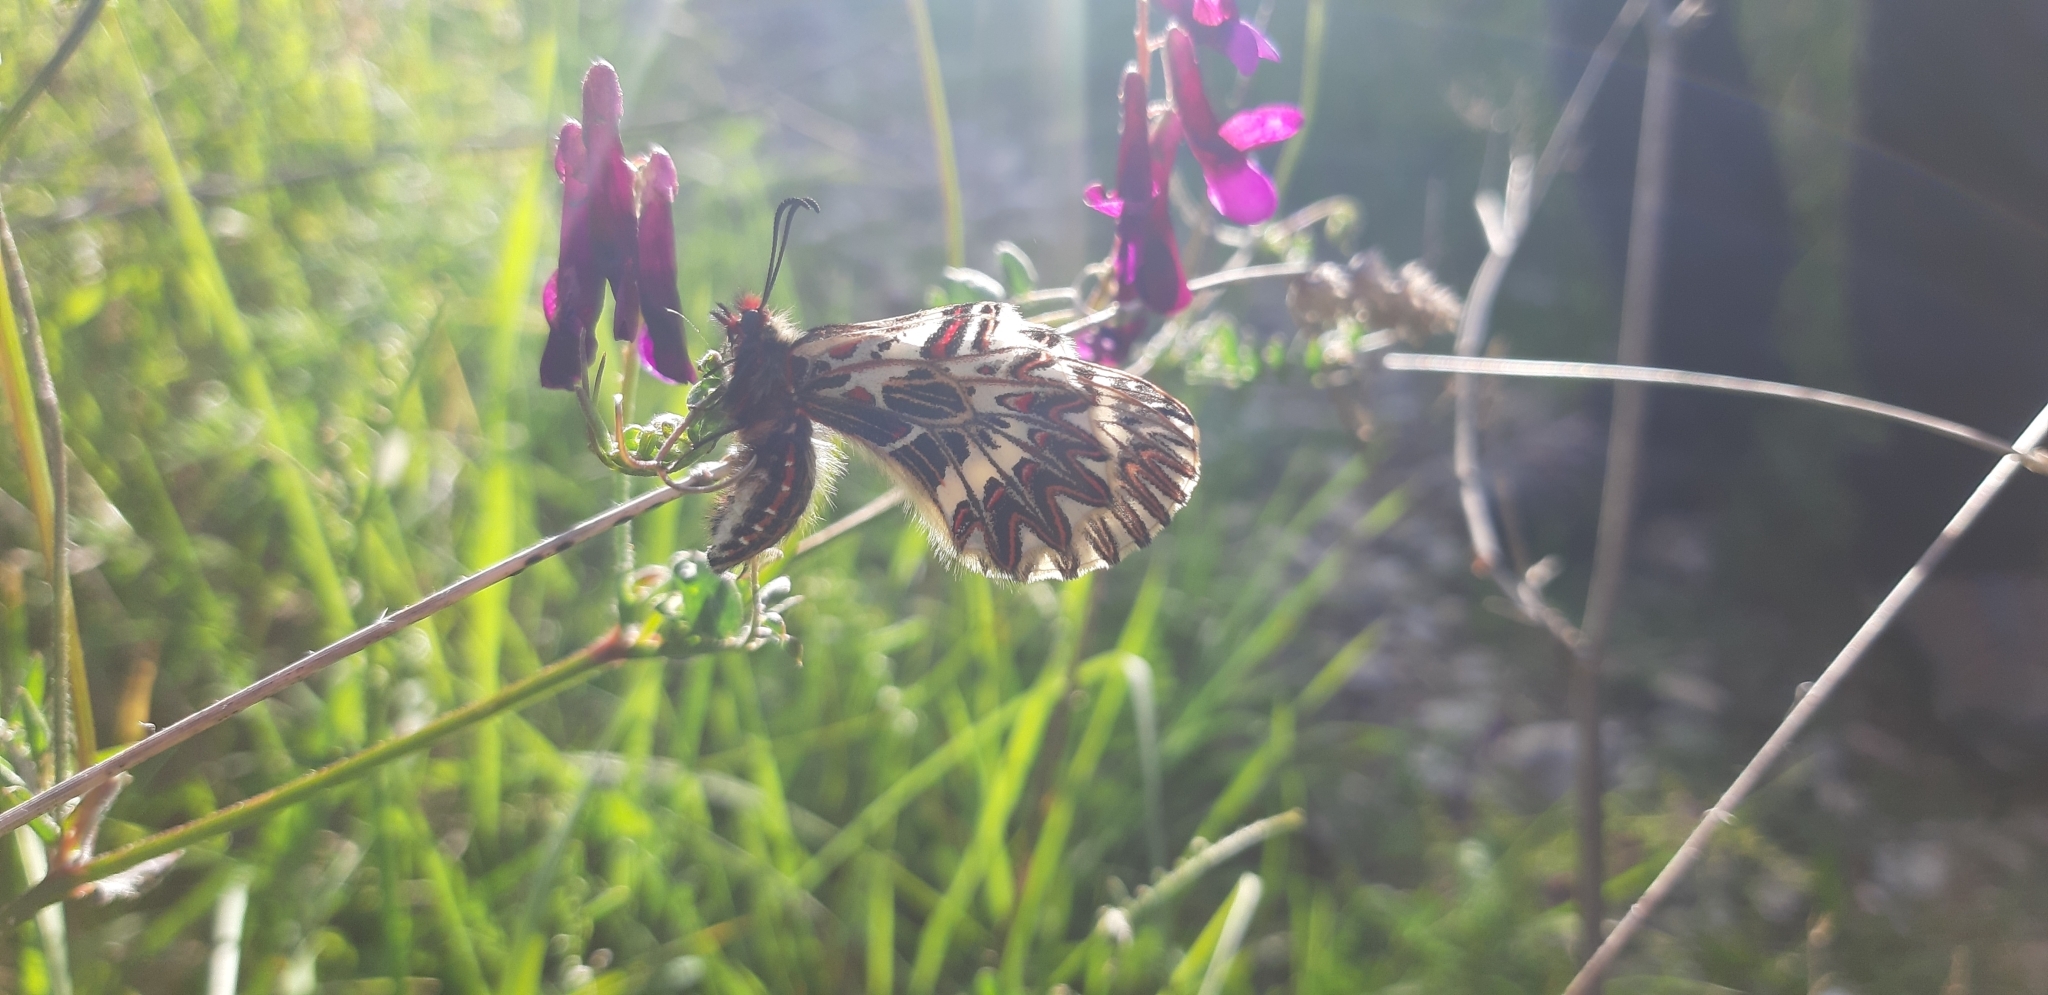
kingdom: Animalia
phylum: Arthropoda
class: Insecta
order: Lepidoptera
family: Papilionidae
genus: Zerynthia
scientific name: Zerynthia cassandra
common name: Italian festoon
